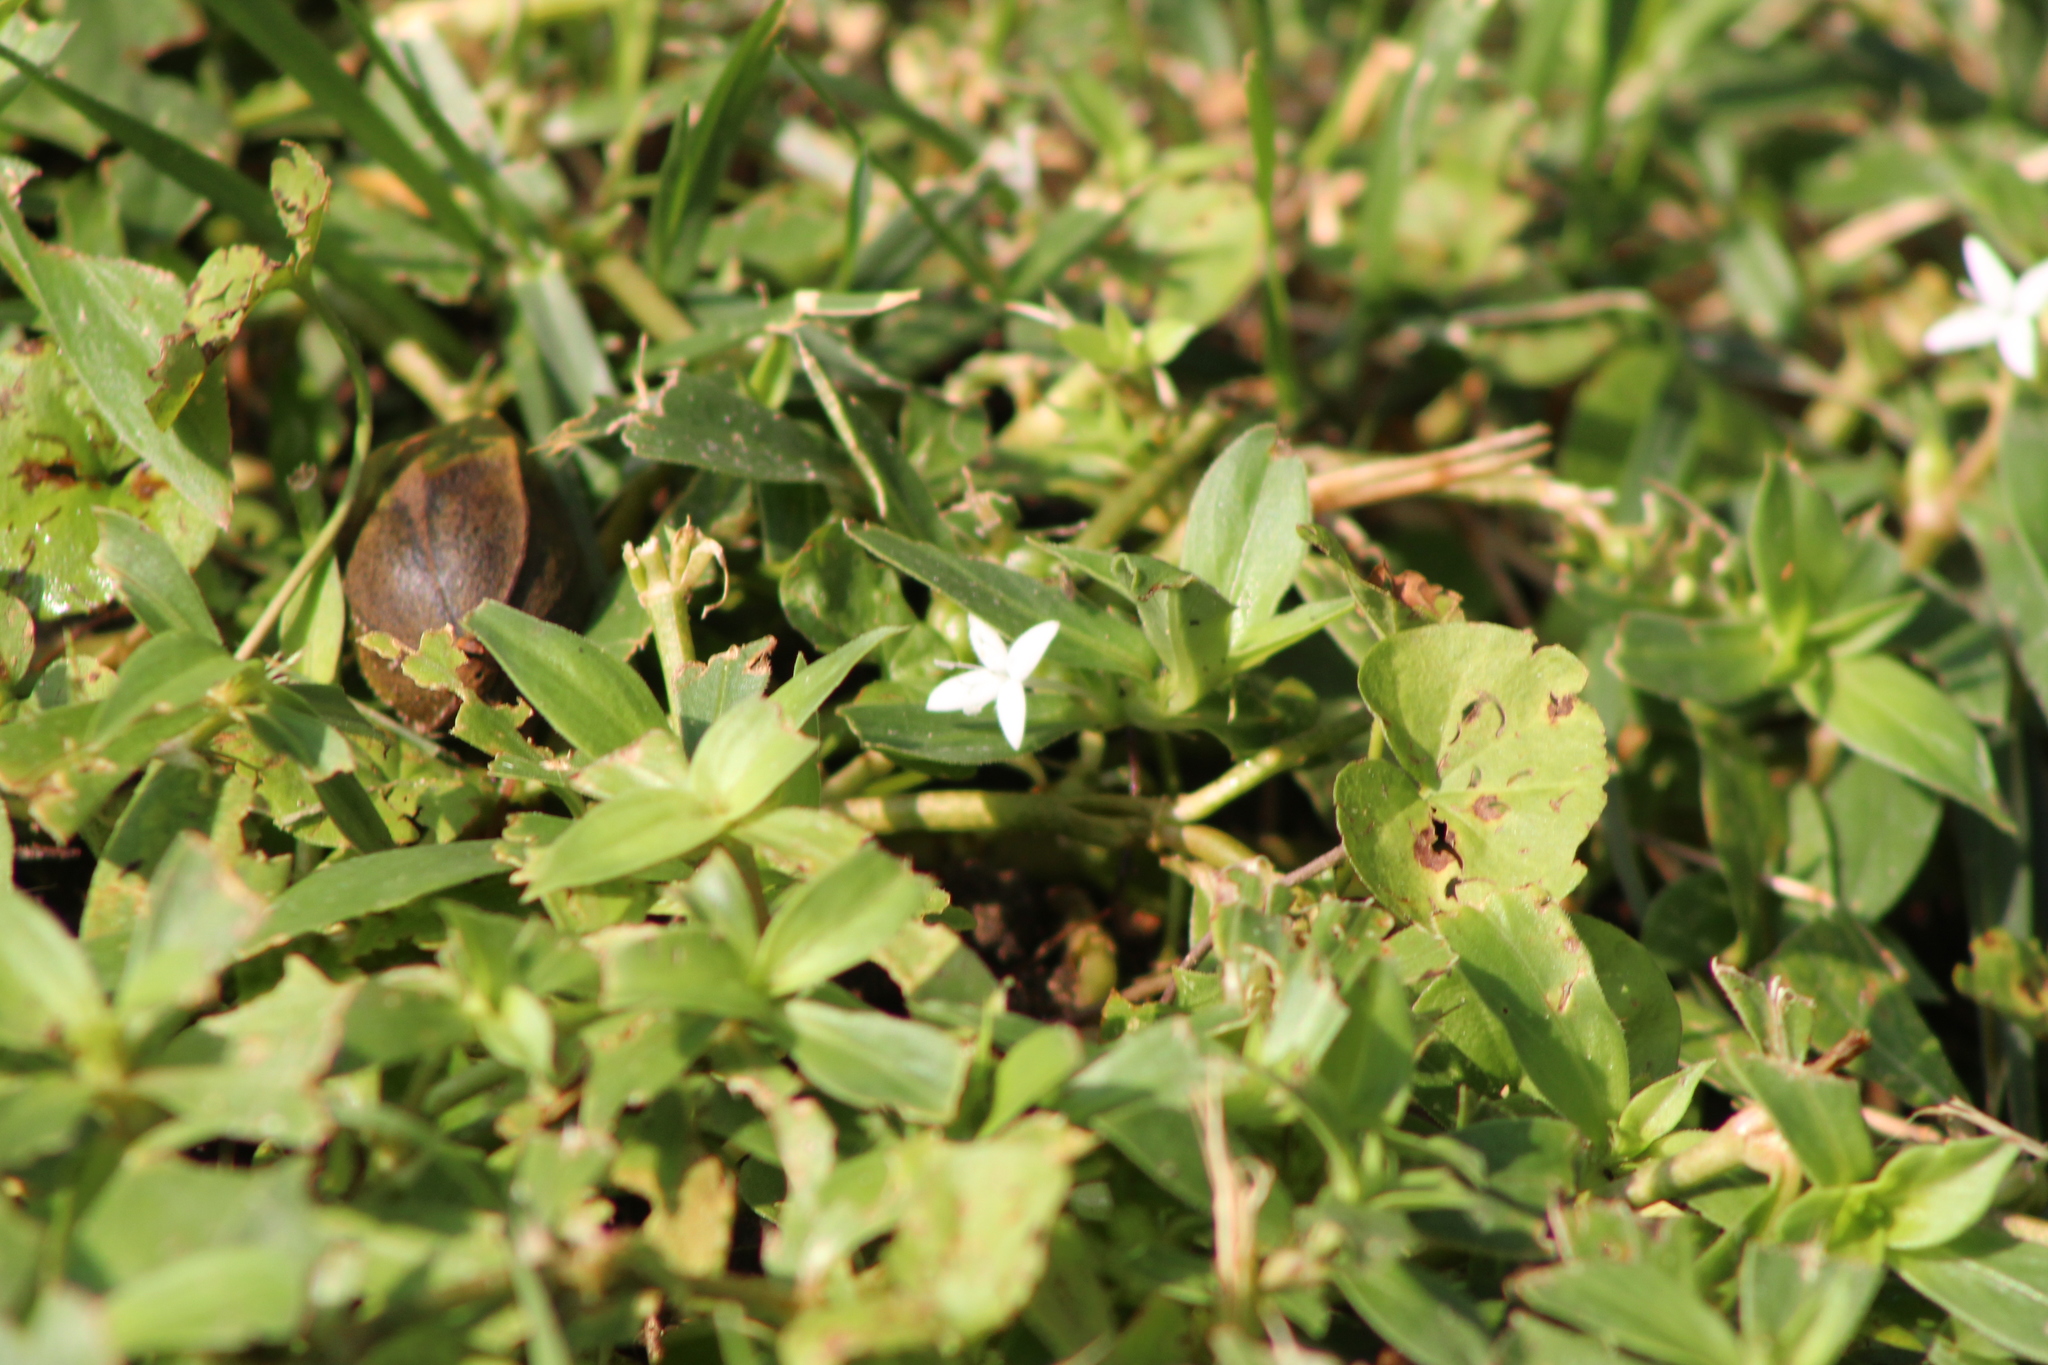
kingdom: Plantae
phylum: Tracheophyta
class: Magnoliopsida
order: Gentianales
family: Rubiaceae
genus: Diodia
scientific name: Diodia virginiana
